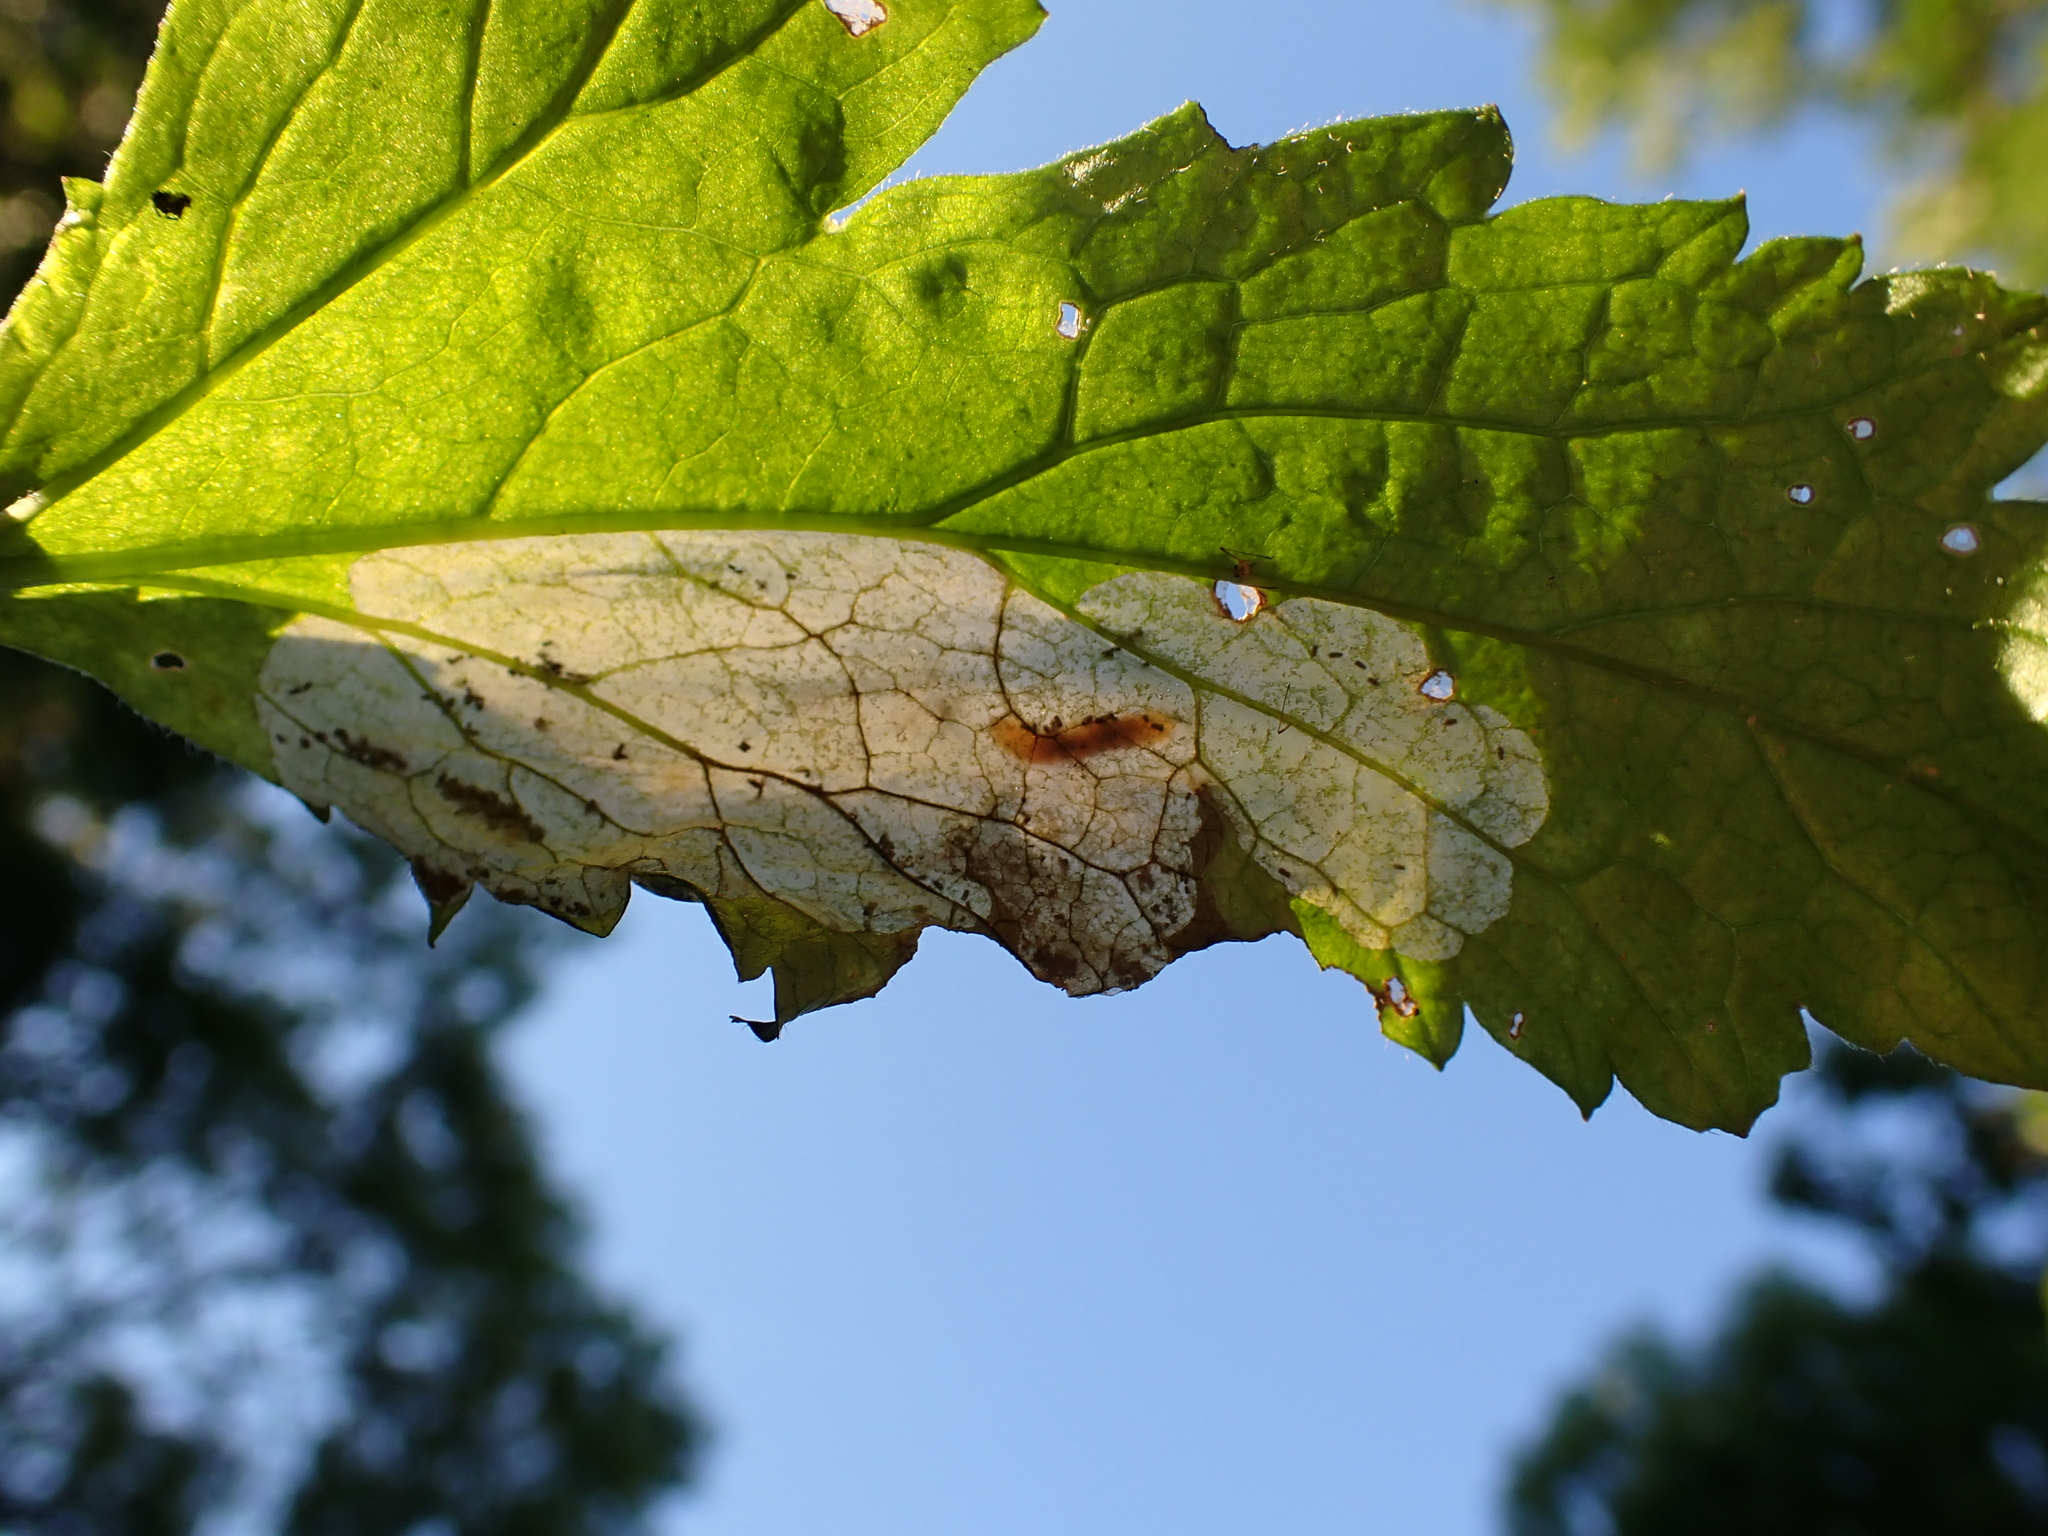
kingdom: Animalia
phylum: Arthropoda
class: Insecta
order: Hymenoptera
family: Tenthredinidae
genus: Metallus
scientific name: Metallus lanceolatus
